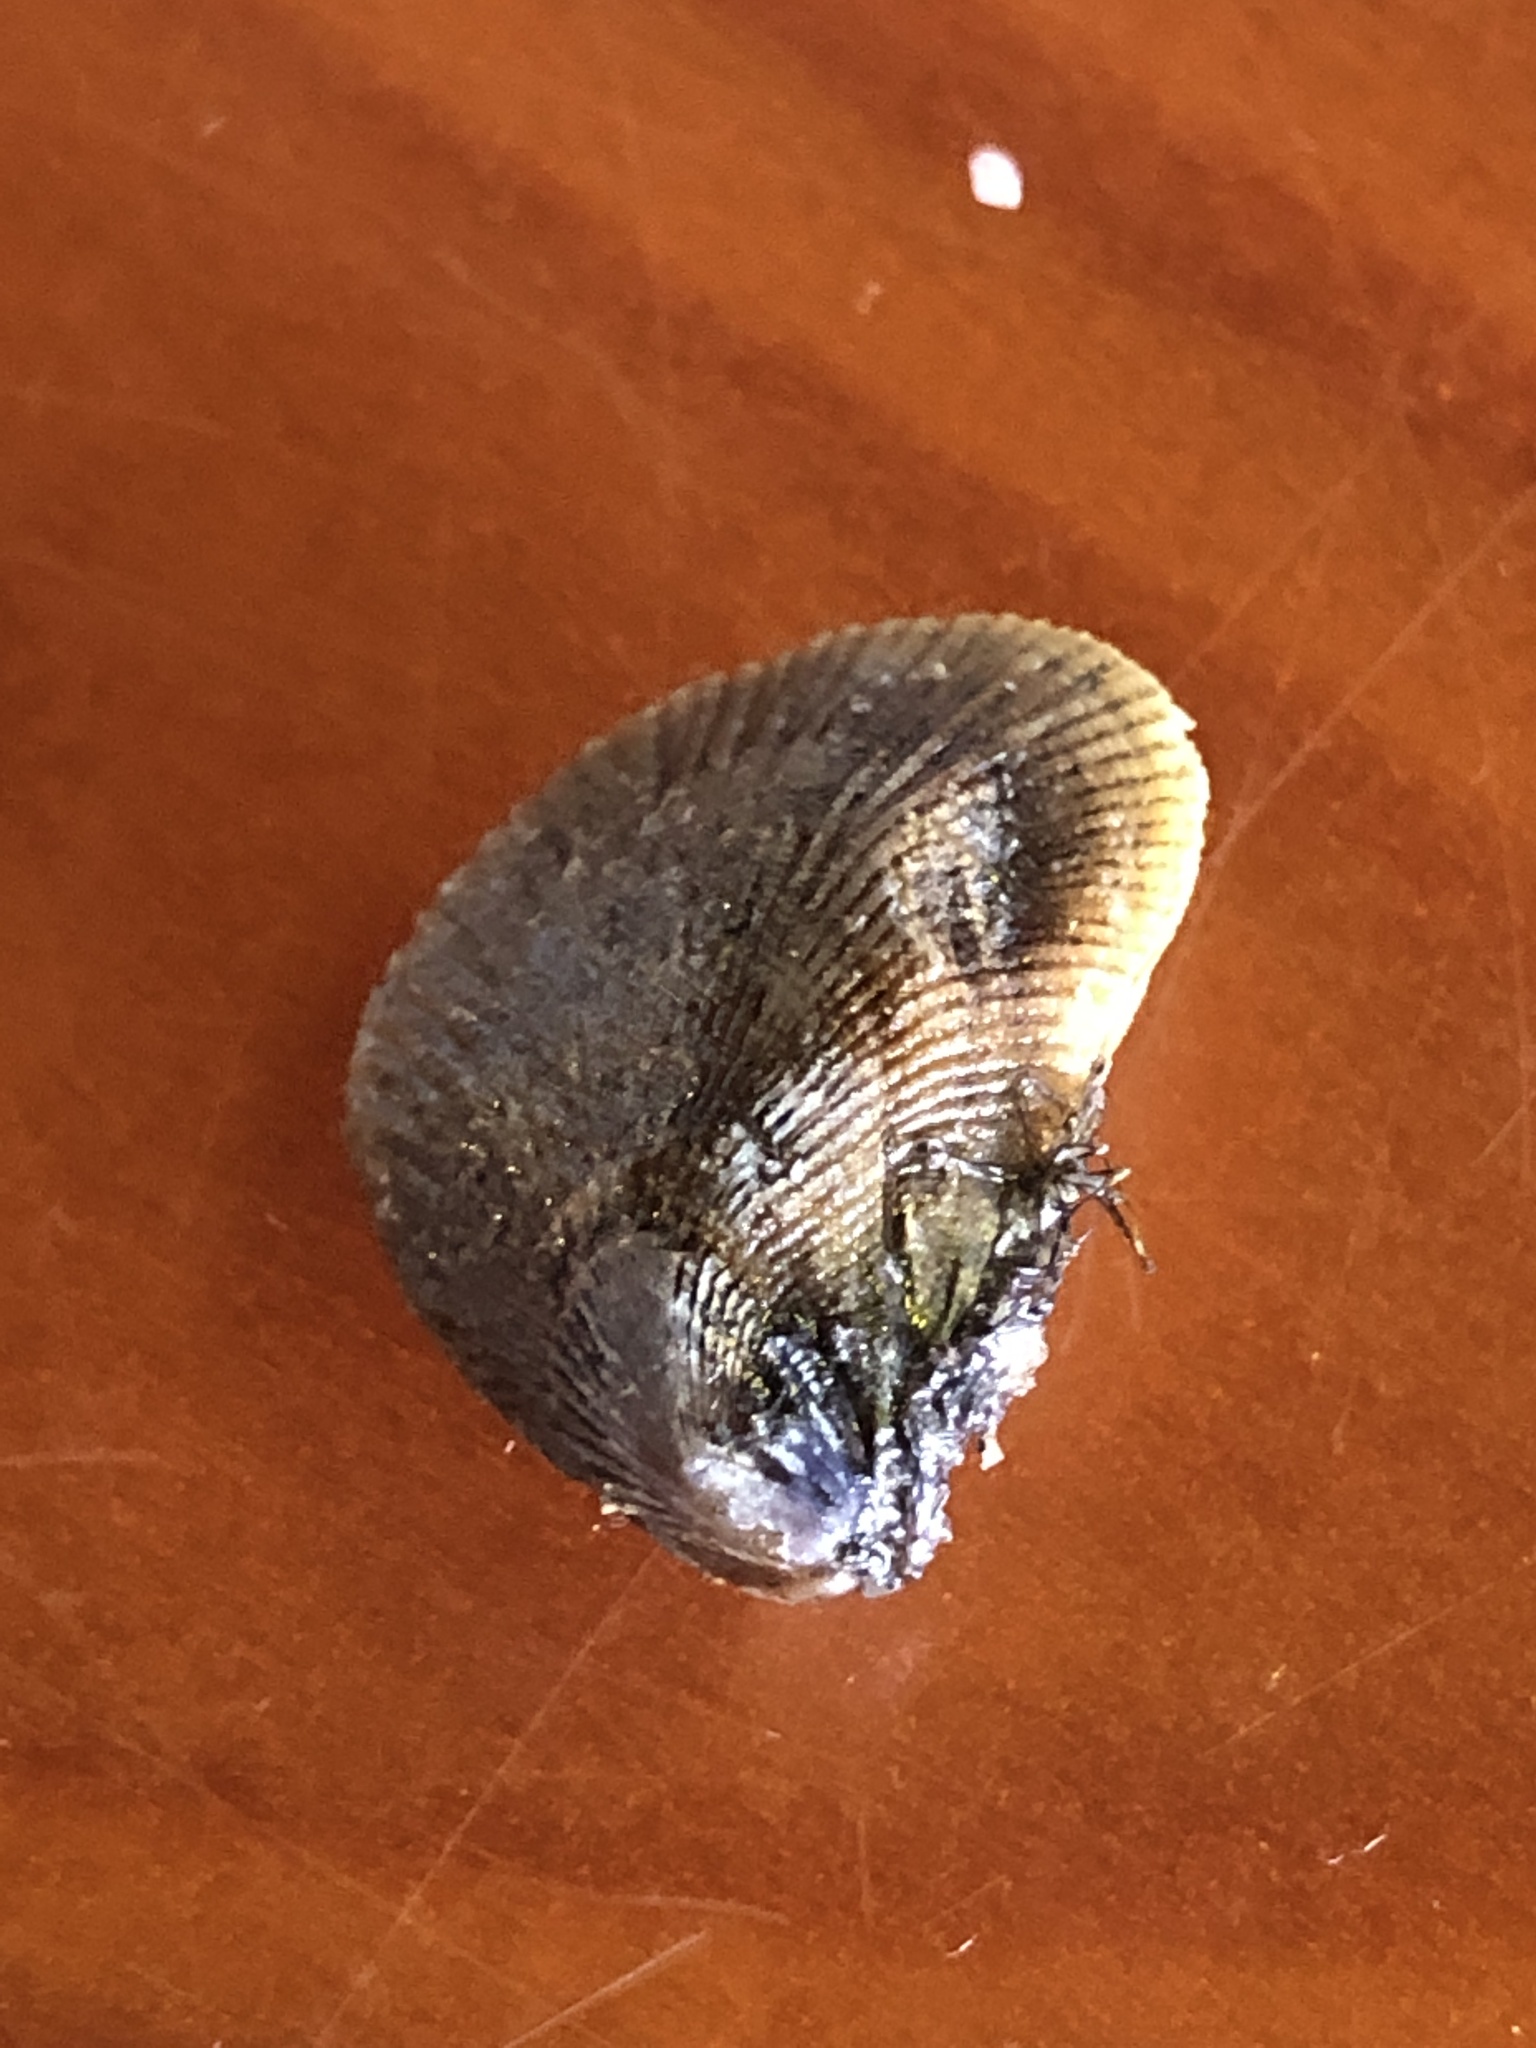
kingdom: Animalia
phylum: Mollusca
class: Bivalvia
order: Mytilida
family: Mytilidae
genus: Ischadium
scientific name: Ischadium recurvum
